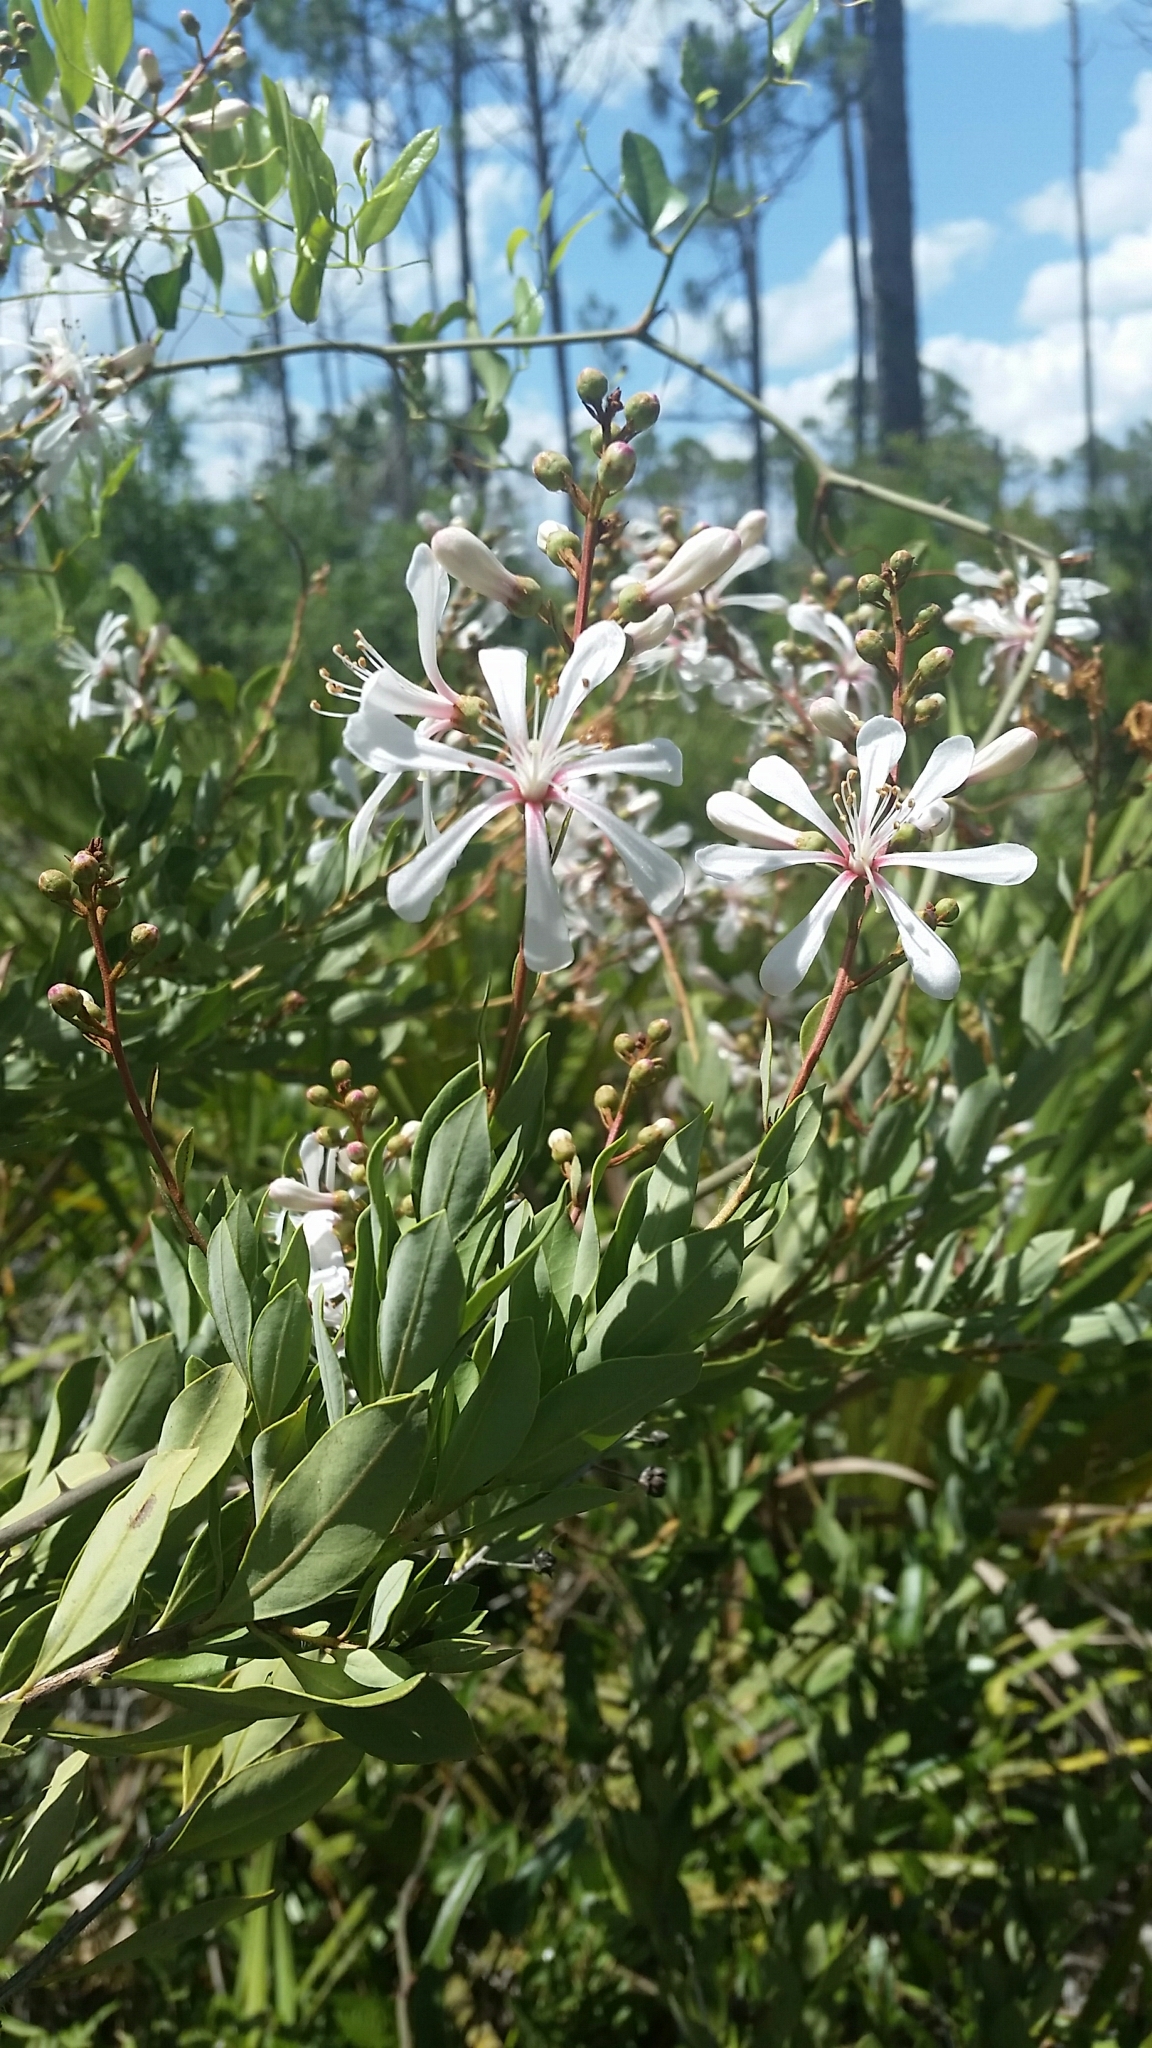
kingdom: Plantae
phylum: Tracheophyta
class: Magnoliopsida
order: Ericales
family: Ericaceae
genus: Bejaria
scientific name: Bejaria racemosa
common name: Tarflower
